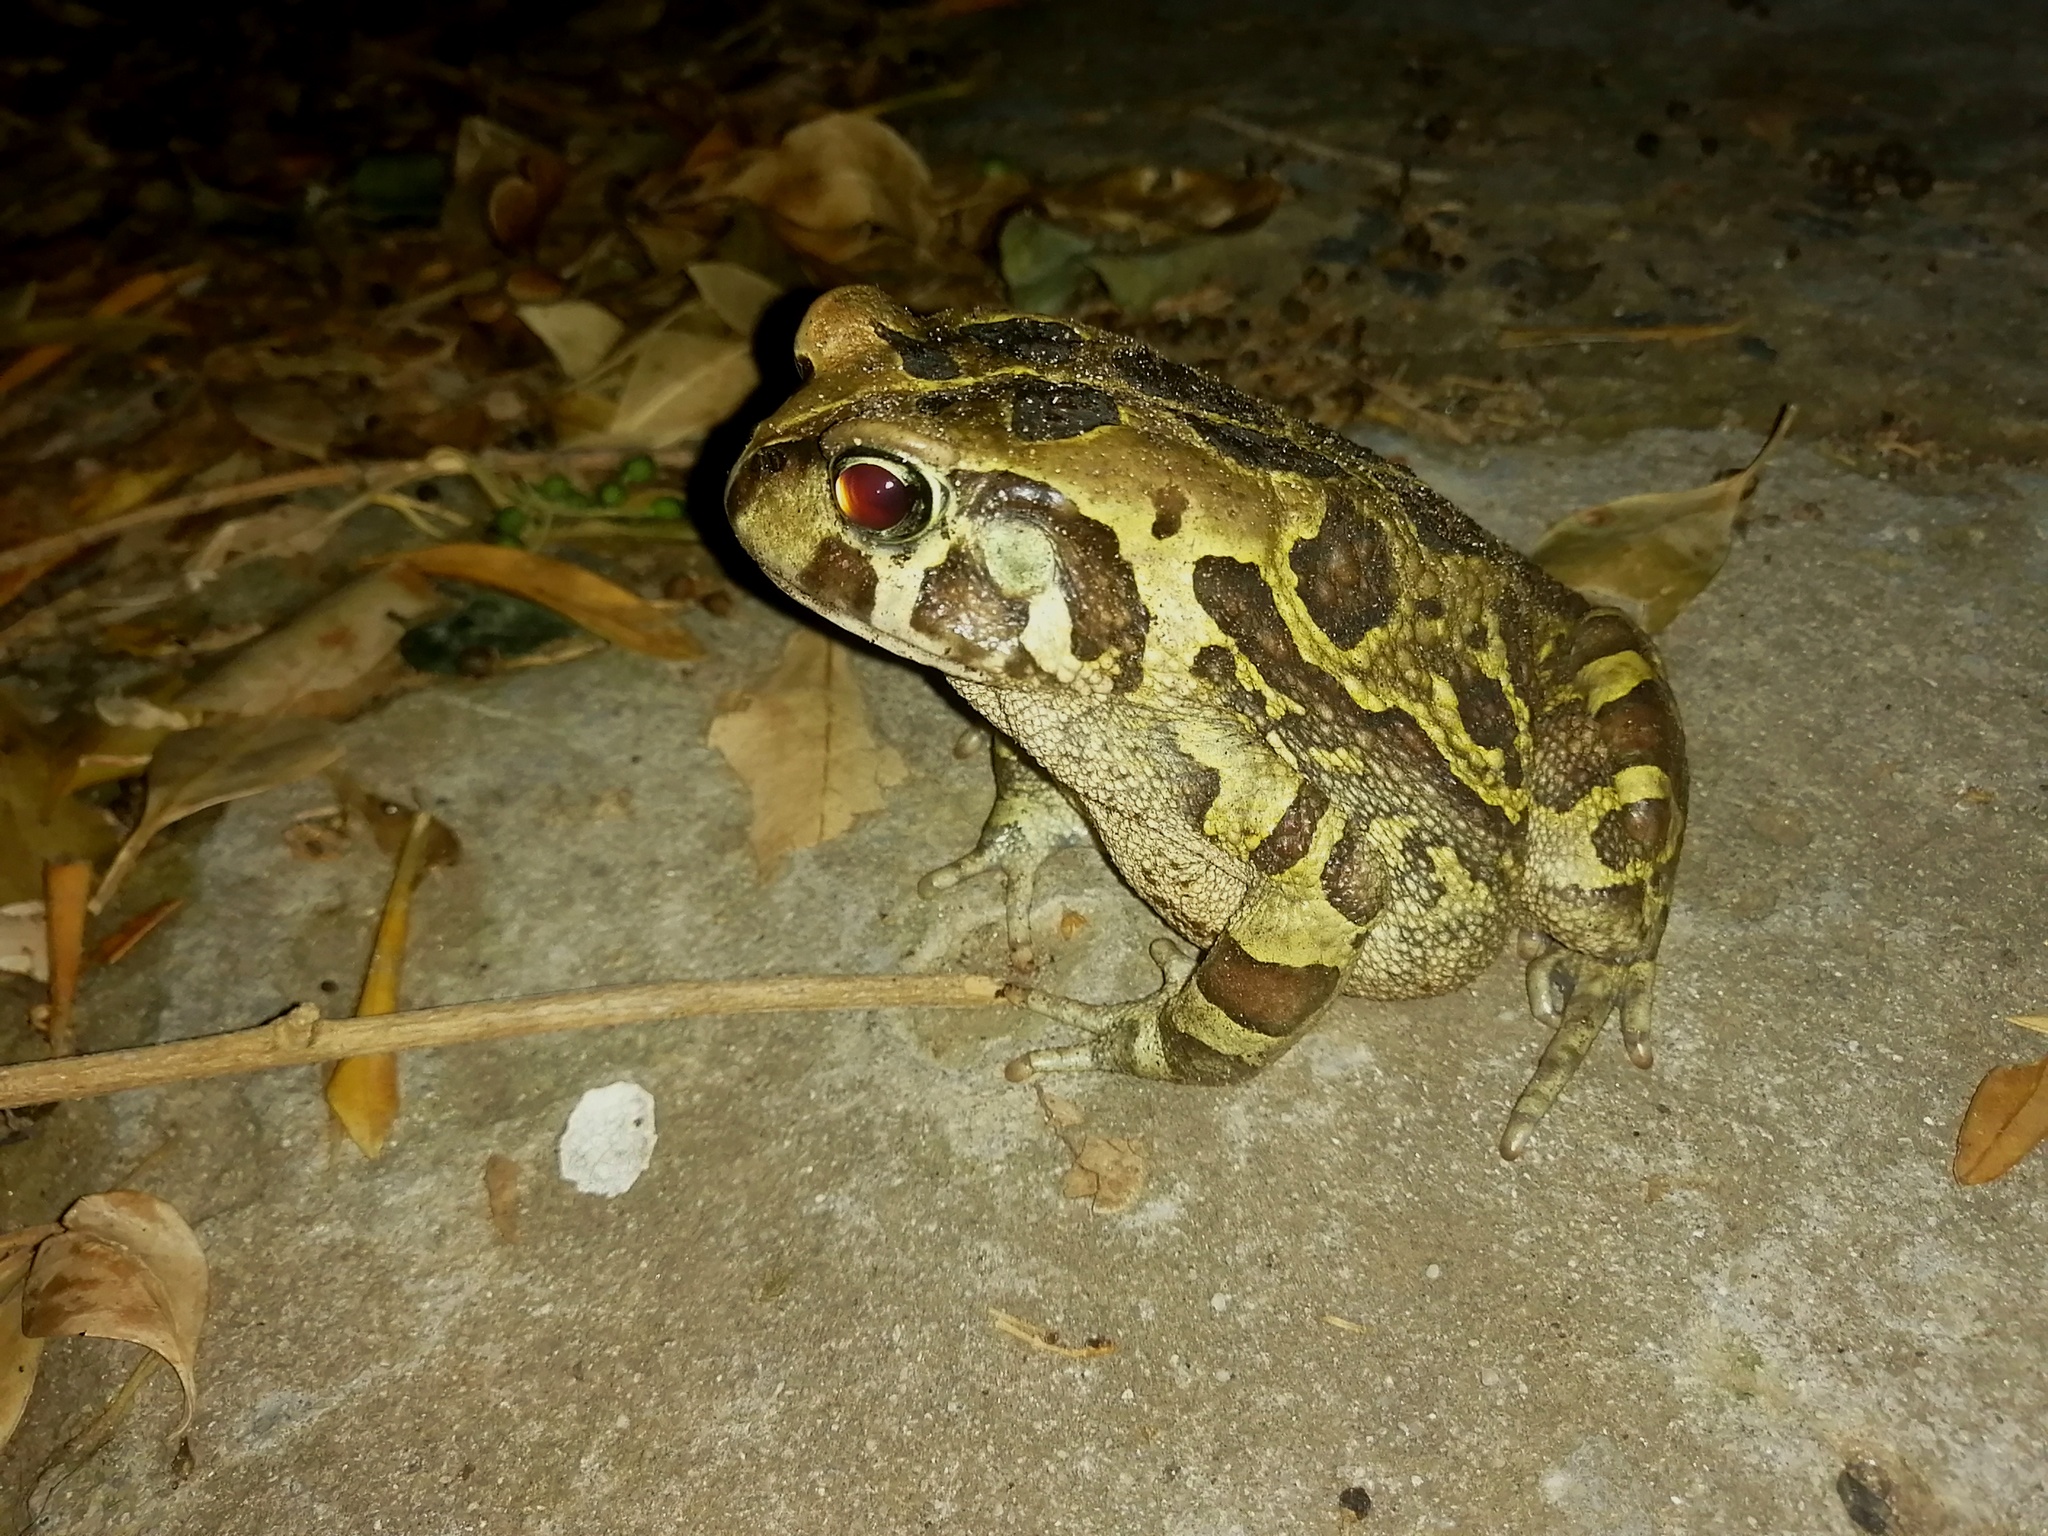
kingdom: Animalia
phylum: Chordata
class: Amphibia
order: Anura
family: Bufonidae
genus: Sclerophrys
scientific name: Sclerophrys pantherina
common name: Panther toad
